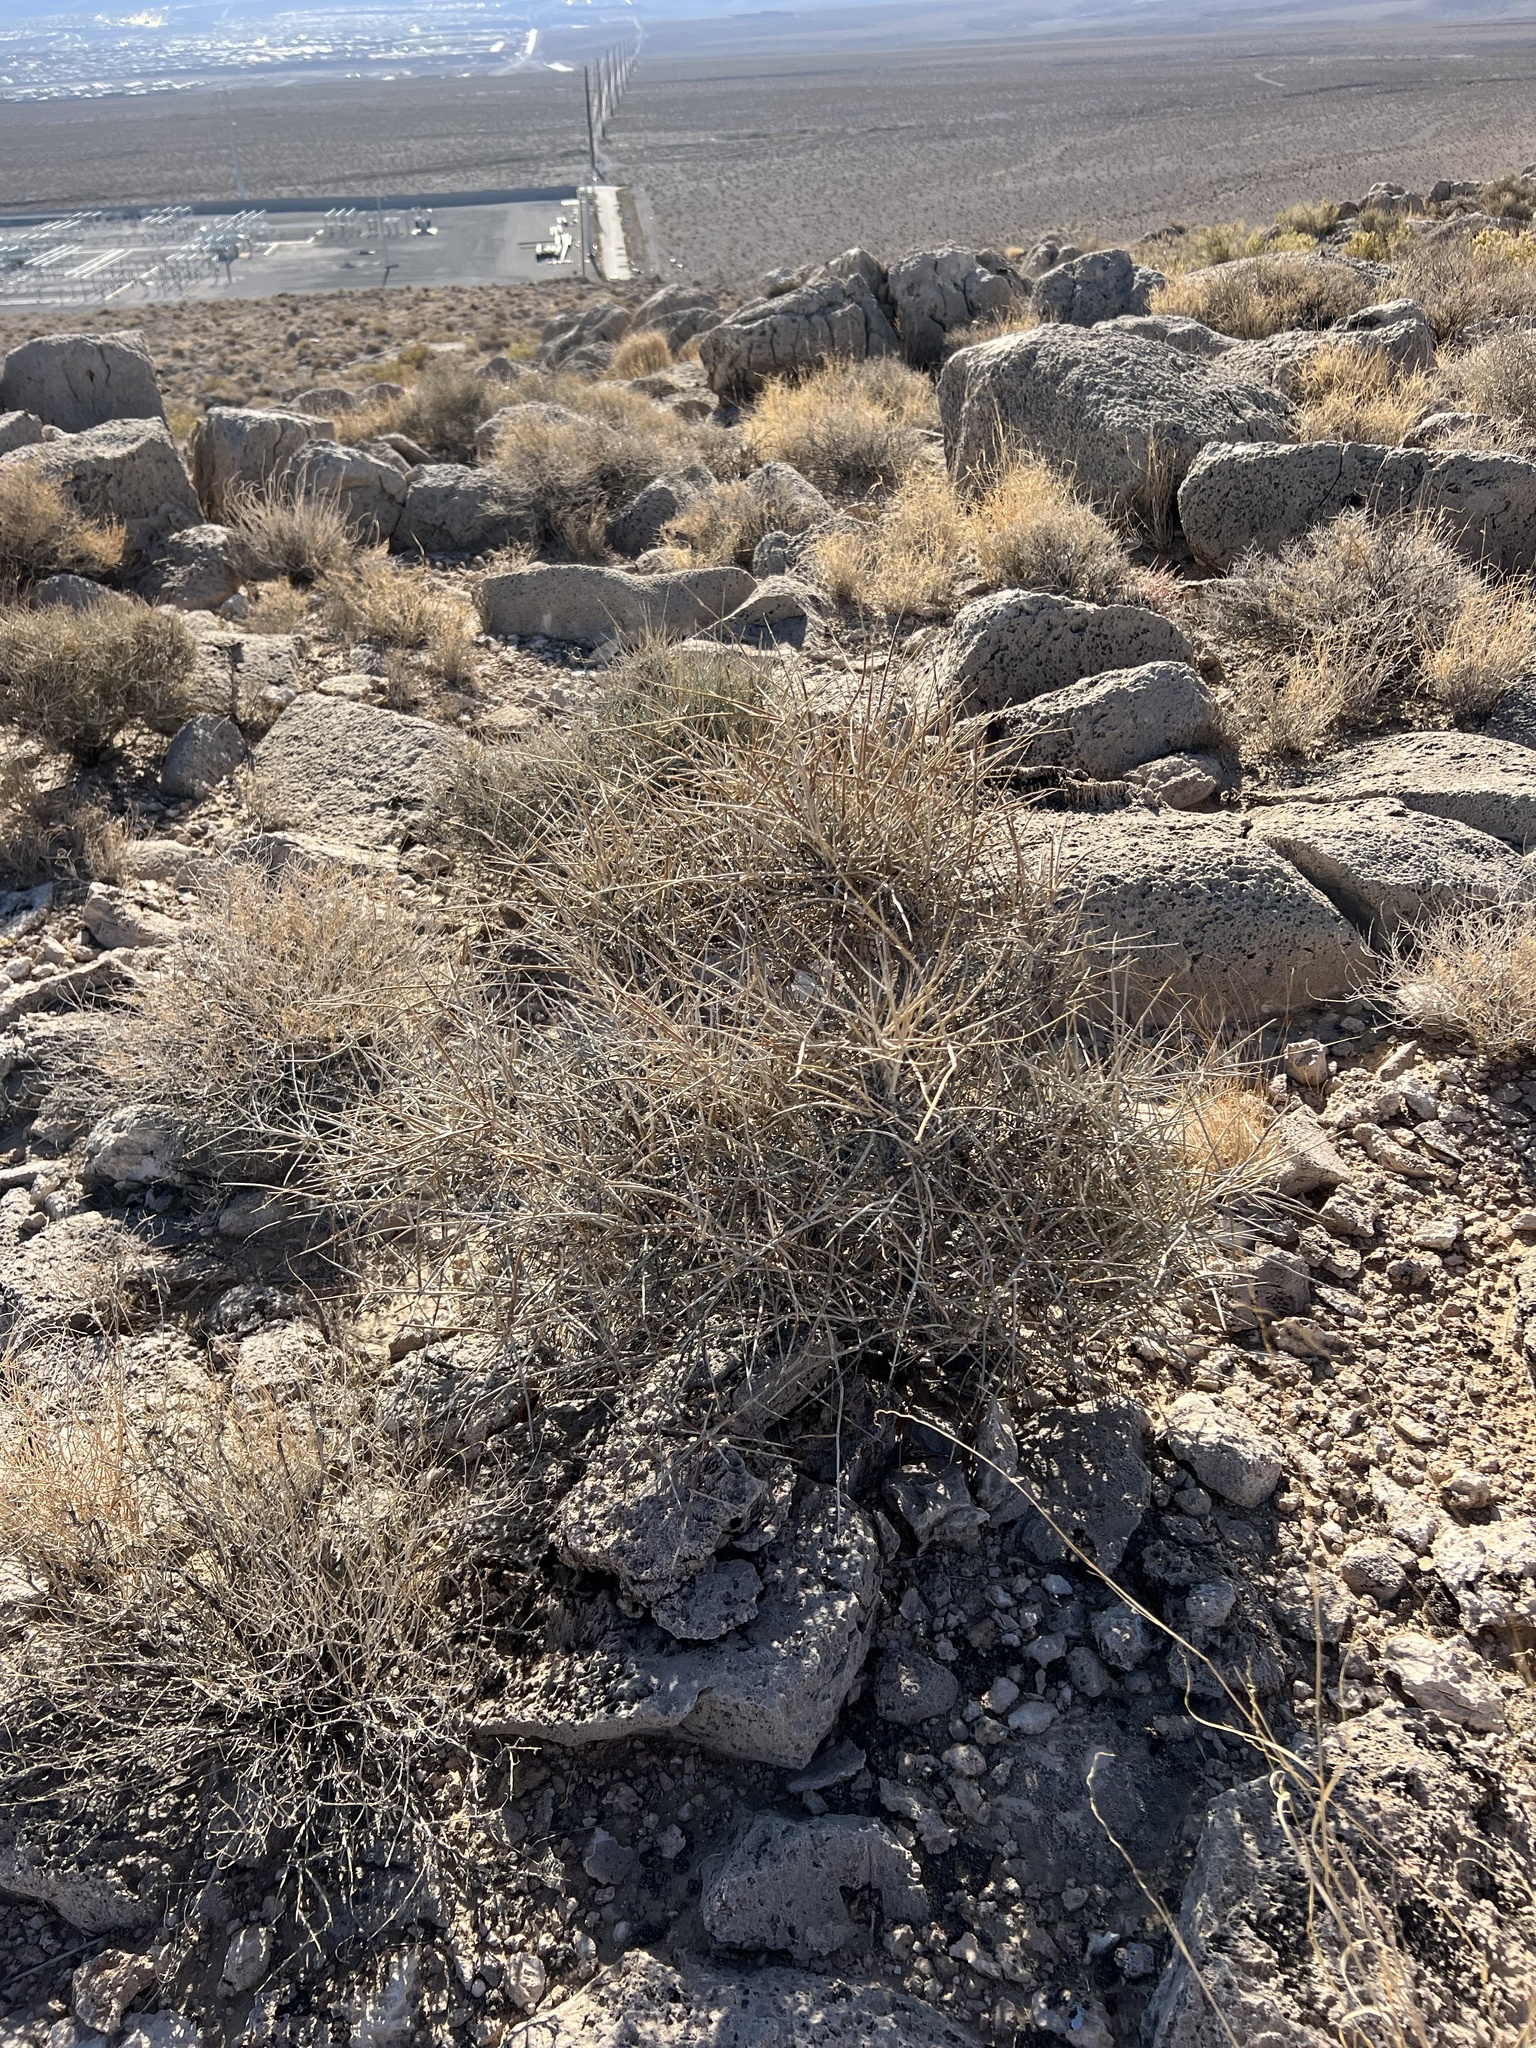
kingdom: Plantae
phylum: Tracheophyta
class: Gnetopsida
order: Ephedrales
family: Ephedraceae
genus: Ephedra
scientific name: Ephedra nevadensis
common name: Gray ephedra
